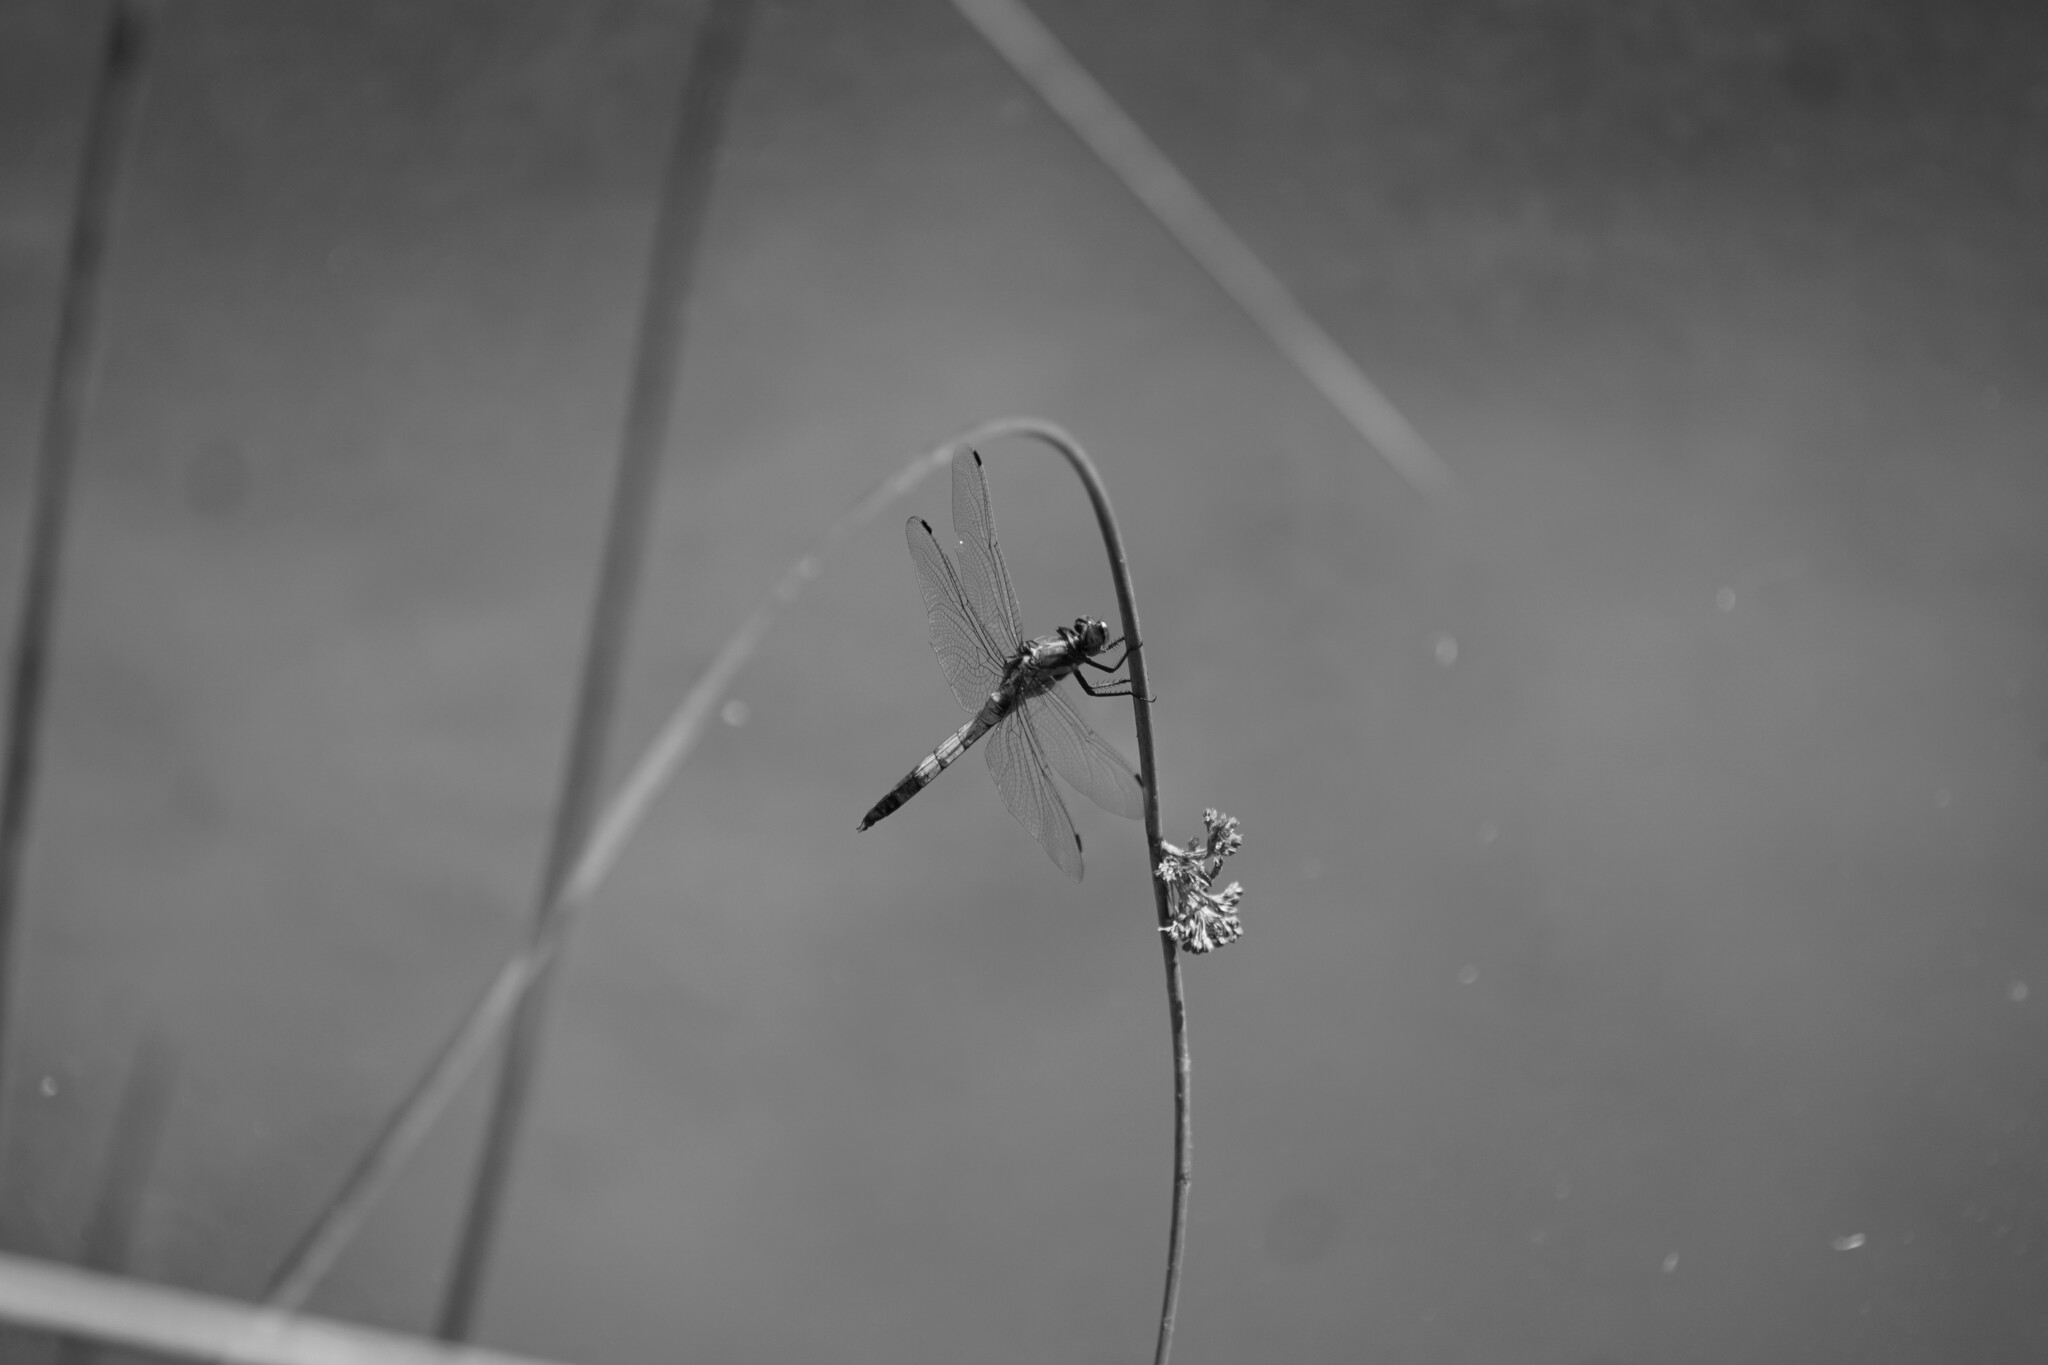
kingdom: Animalia
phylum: Arthropoda
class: Insecta
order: Odonata
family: Libellulidae
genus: Orthetrum
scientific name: Orthetrum albistylum
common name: White-tailed skimmer
